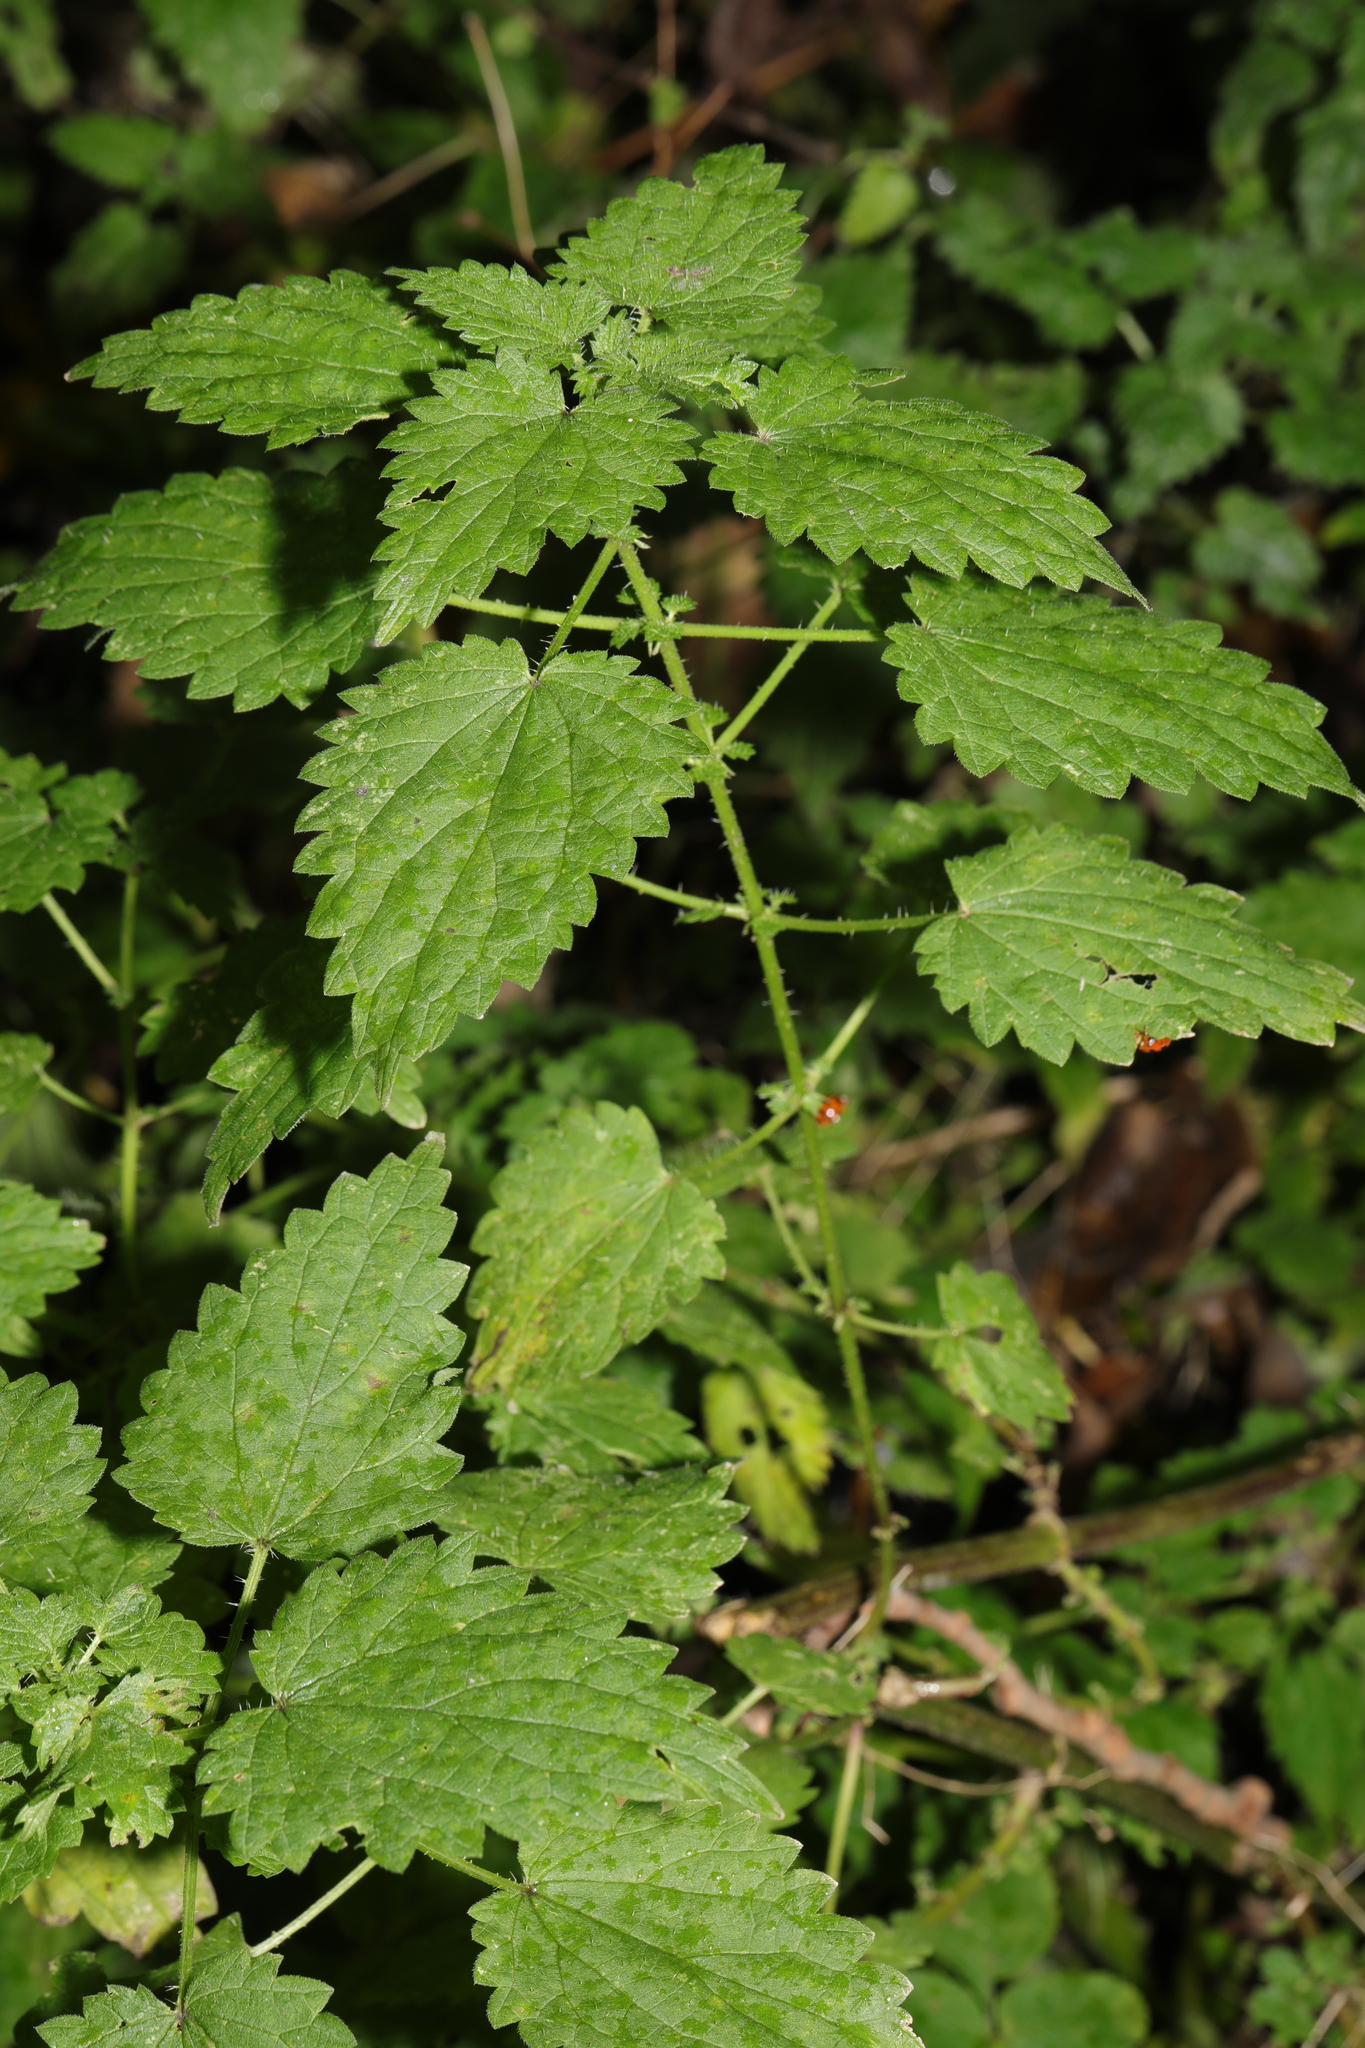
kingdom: Plantae
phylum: Tracheophyta
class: Magnoliopsida
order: Rosales
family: Urticaceae
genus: Urtica
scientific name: Urtica dioica
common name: Common nettle
